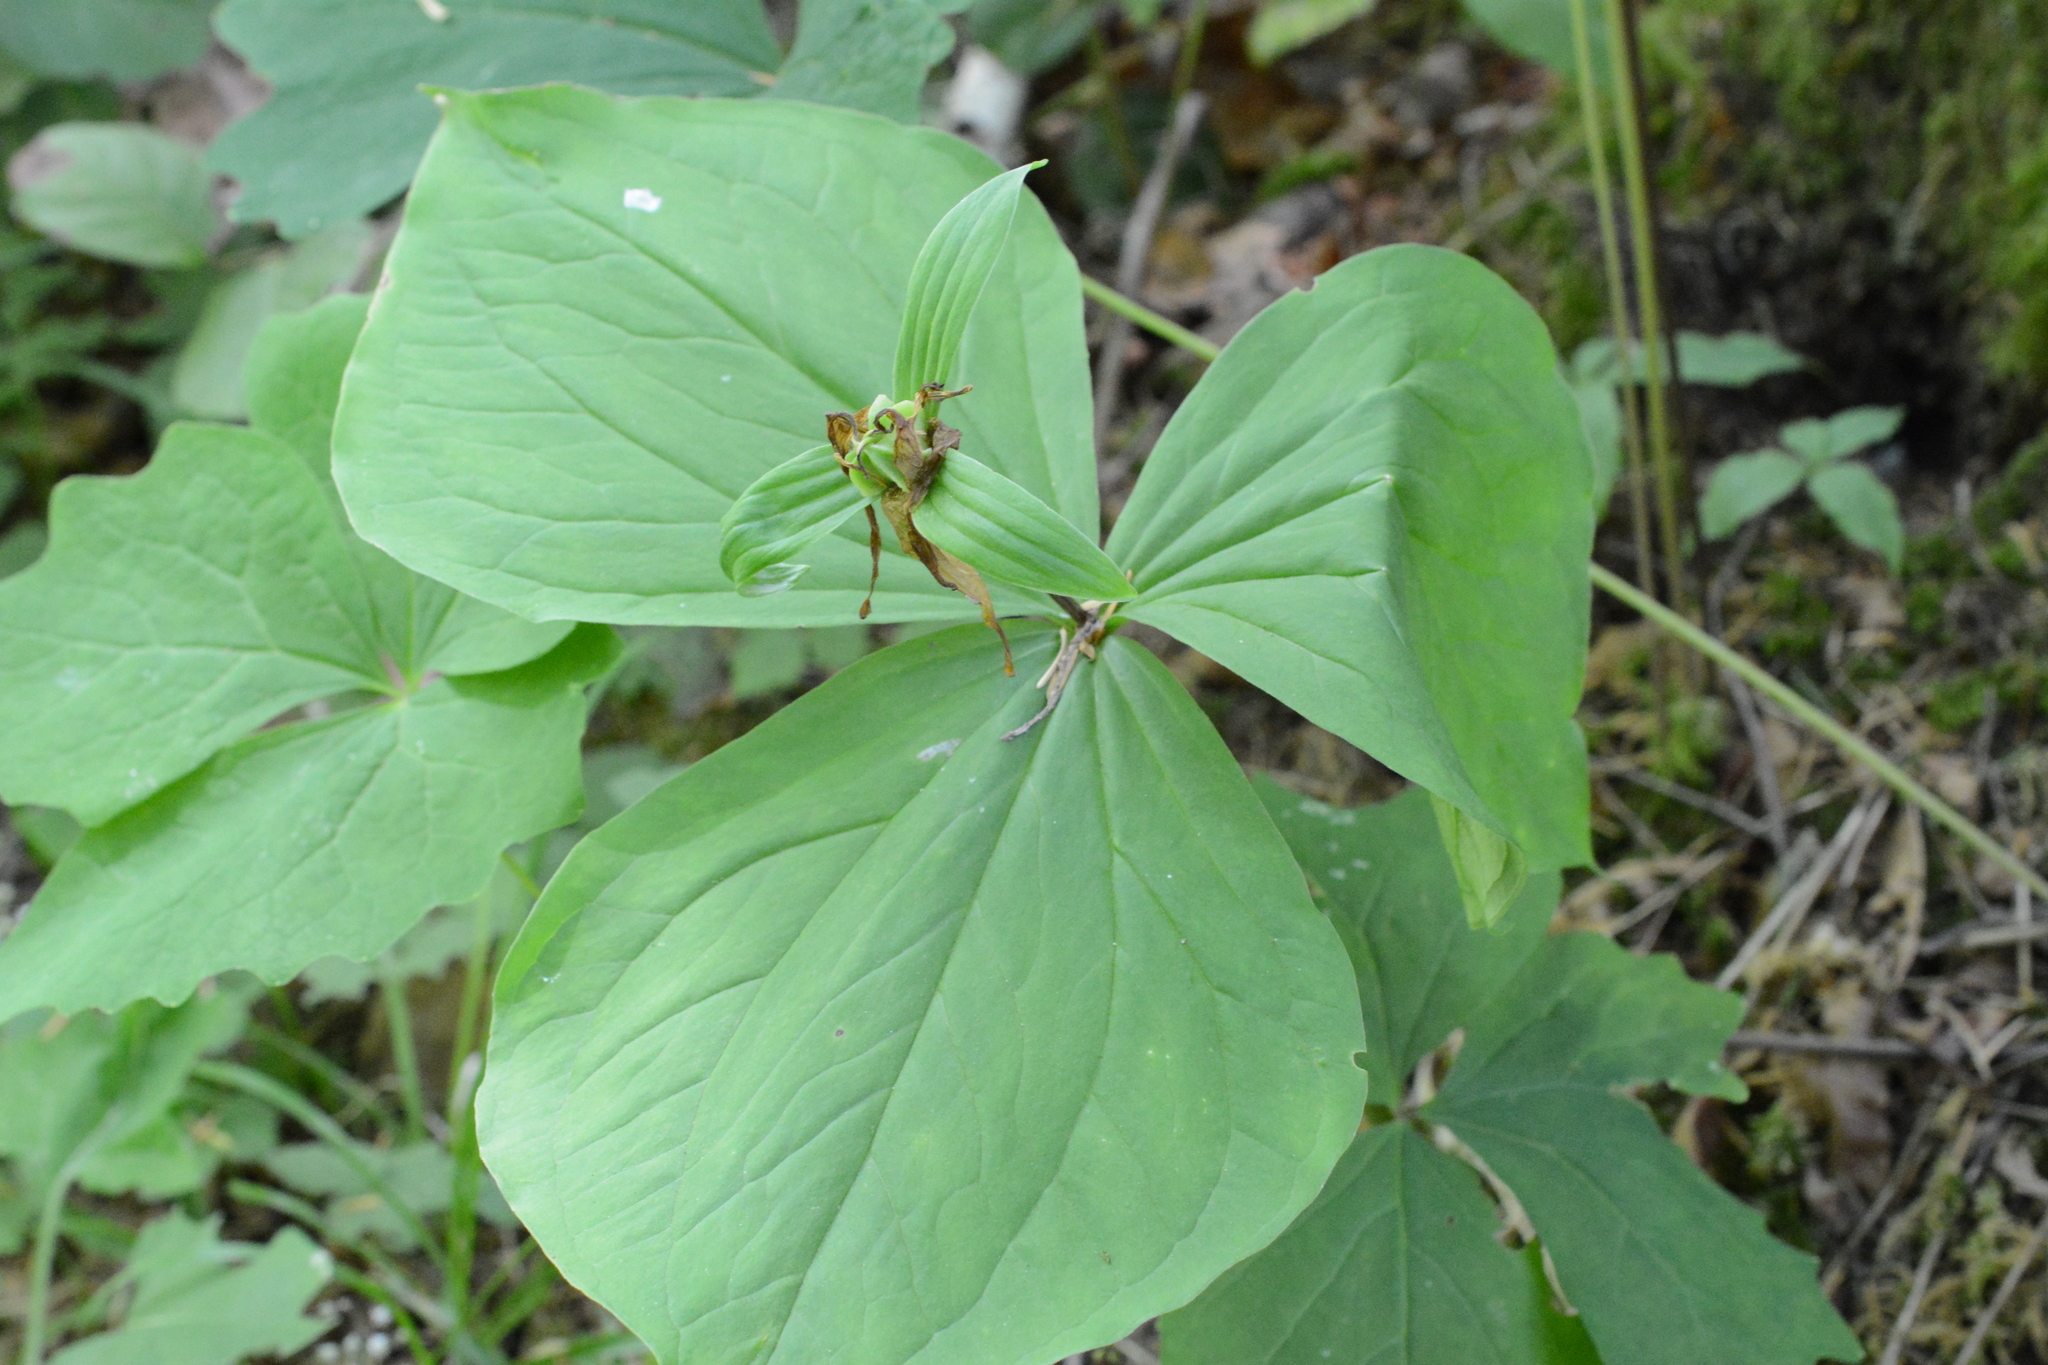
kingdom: Plantae
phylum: Tracheophyta
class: Liliopsida
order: Liliales
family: Melanthiaceae
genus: Trillium
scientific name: Trillium ovatum
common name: Pacific trillium
